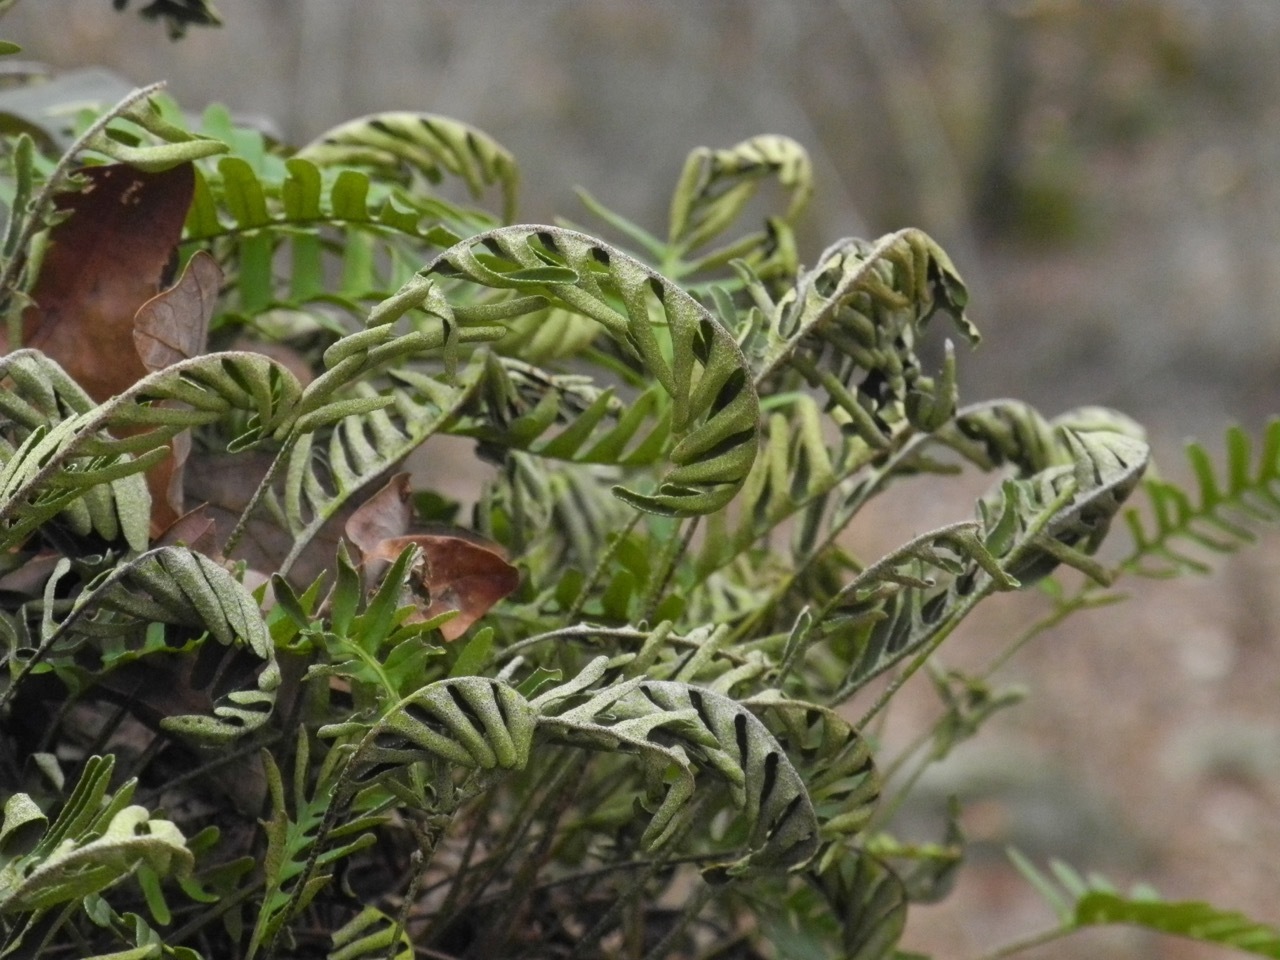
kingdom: Plantae
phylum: Tracheophyta
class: Polypodiopsida
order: Polypodiales
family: Polypodiaceae
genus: Pleopeltis
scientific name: Pleopeltis michauxiana
